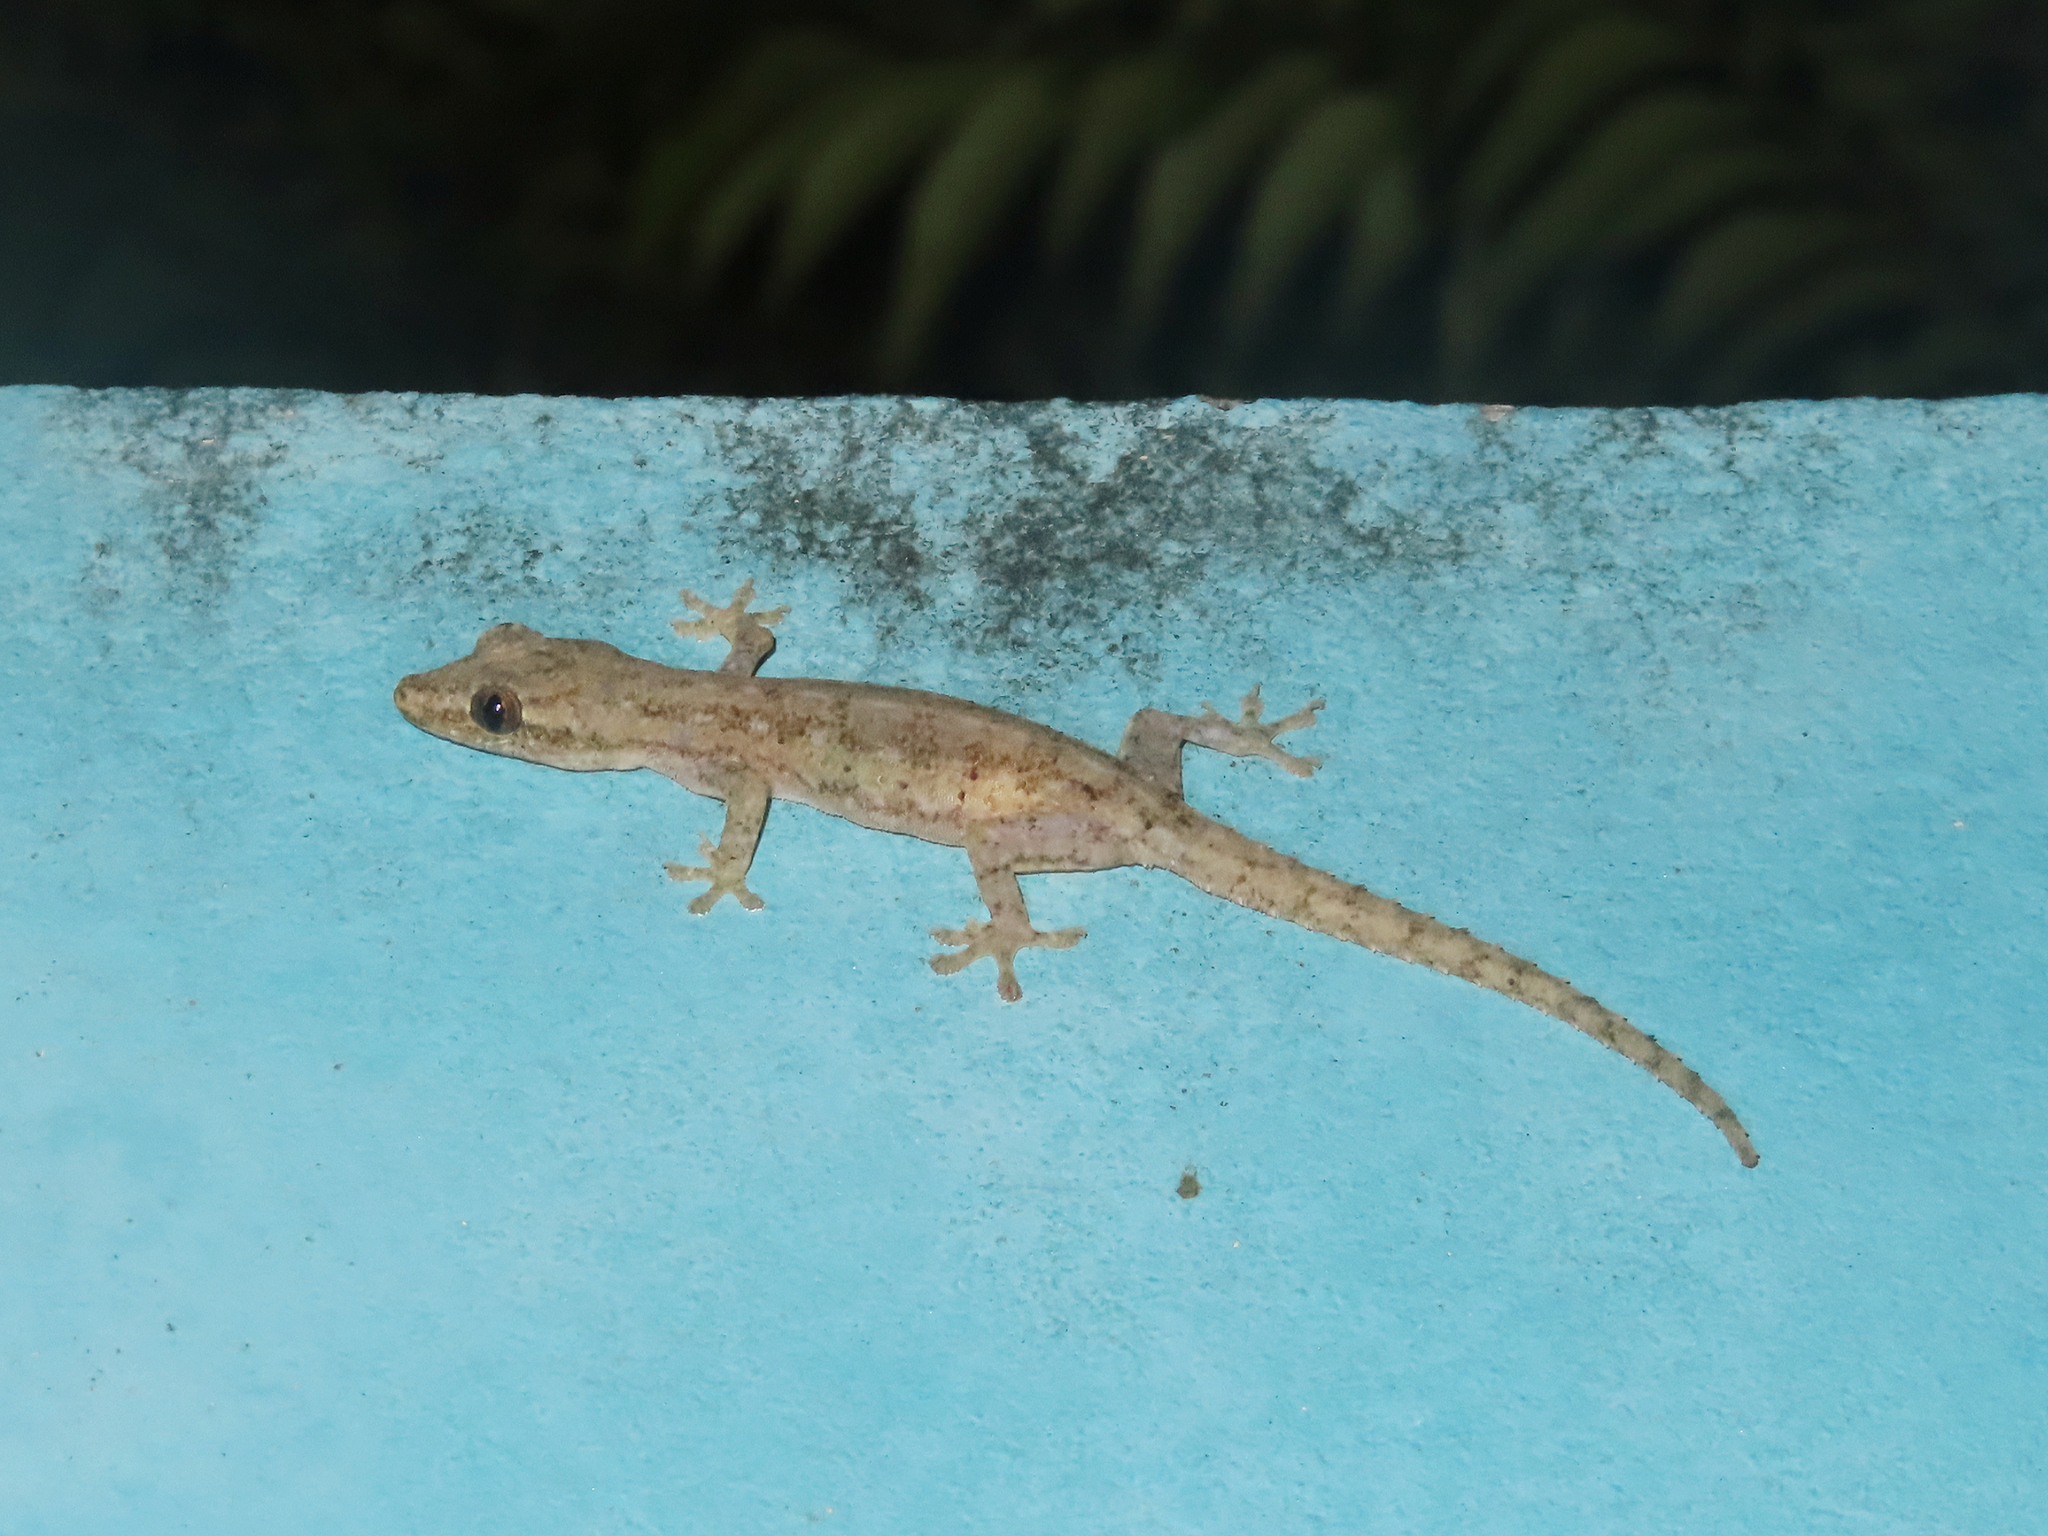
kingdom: Animalia
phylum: Chordata
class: Squamata
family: Gekkonidae
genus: Hemidactylus
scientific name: Hemidactylus frenatus
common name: Common house gecko
